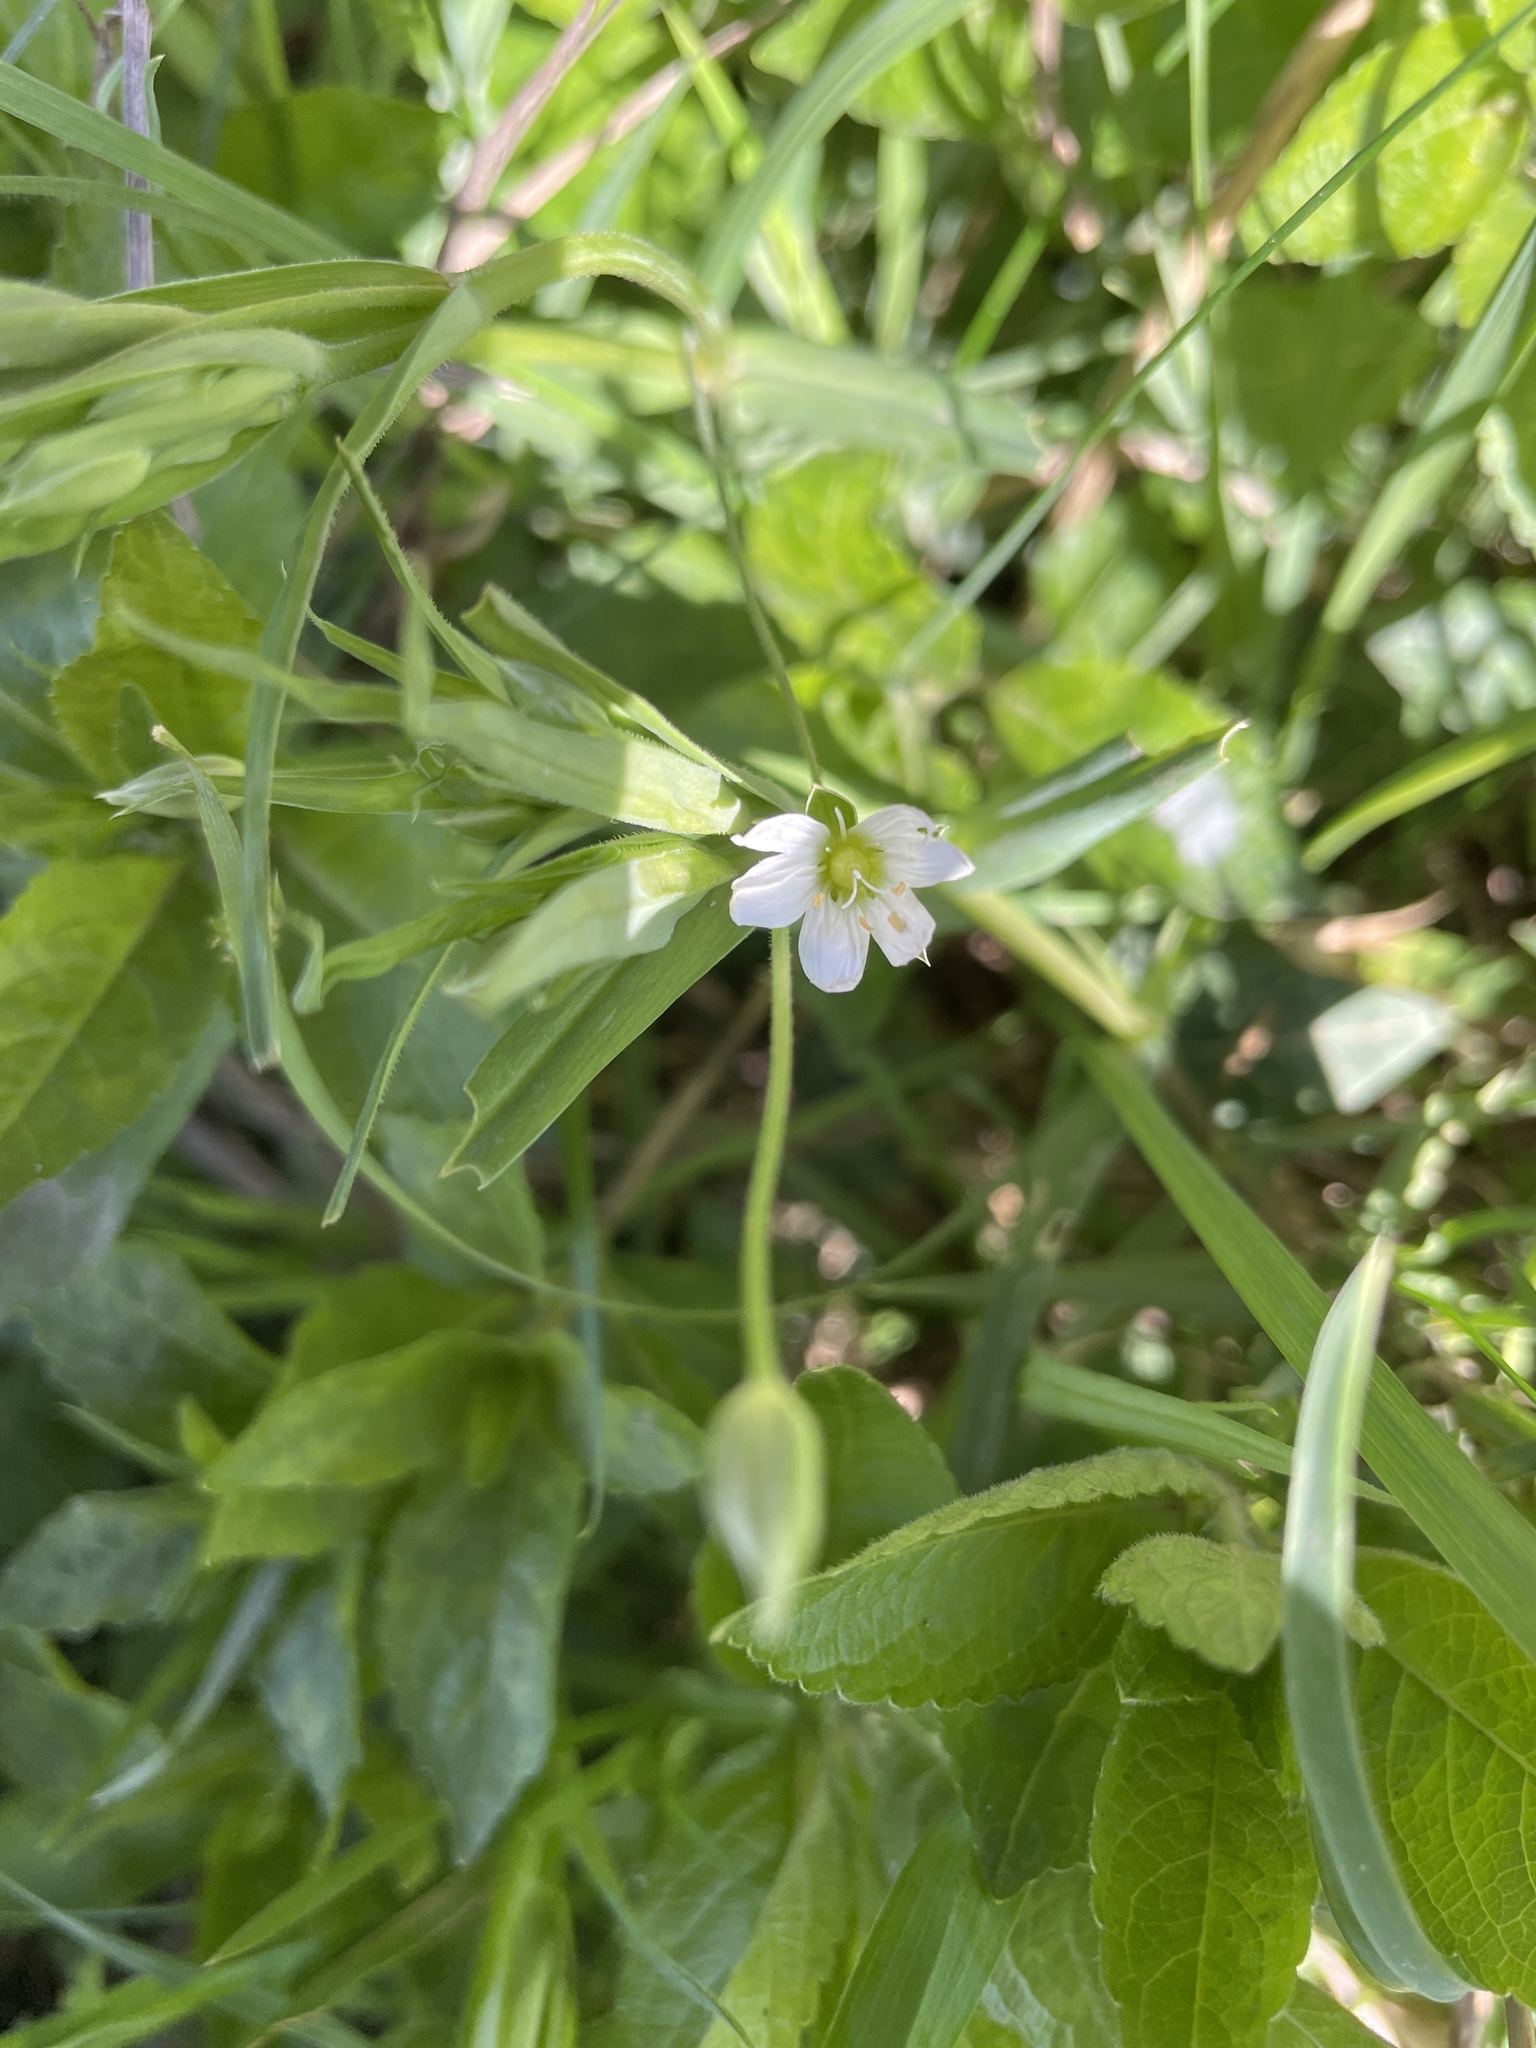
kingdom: Plantae
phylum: Tracheophyta
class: Magnoliopsida
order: Caryophyllales
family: Caryophyllaceae
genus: Rabelera
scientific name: Rabelera holostea
